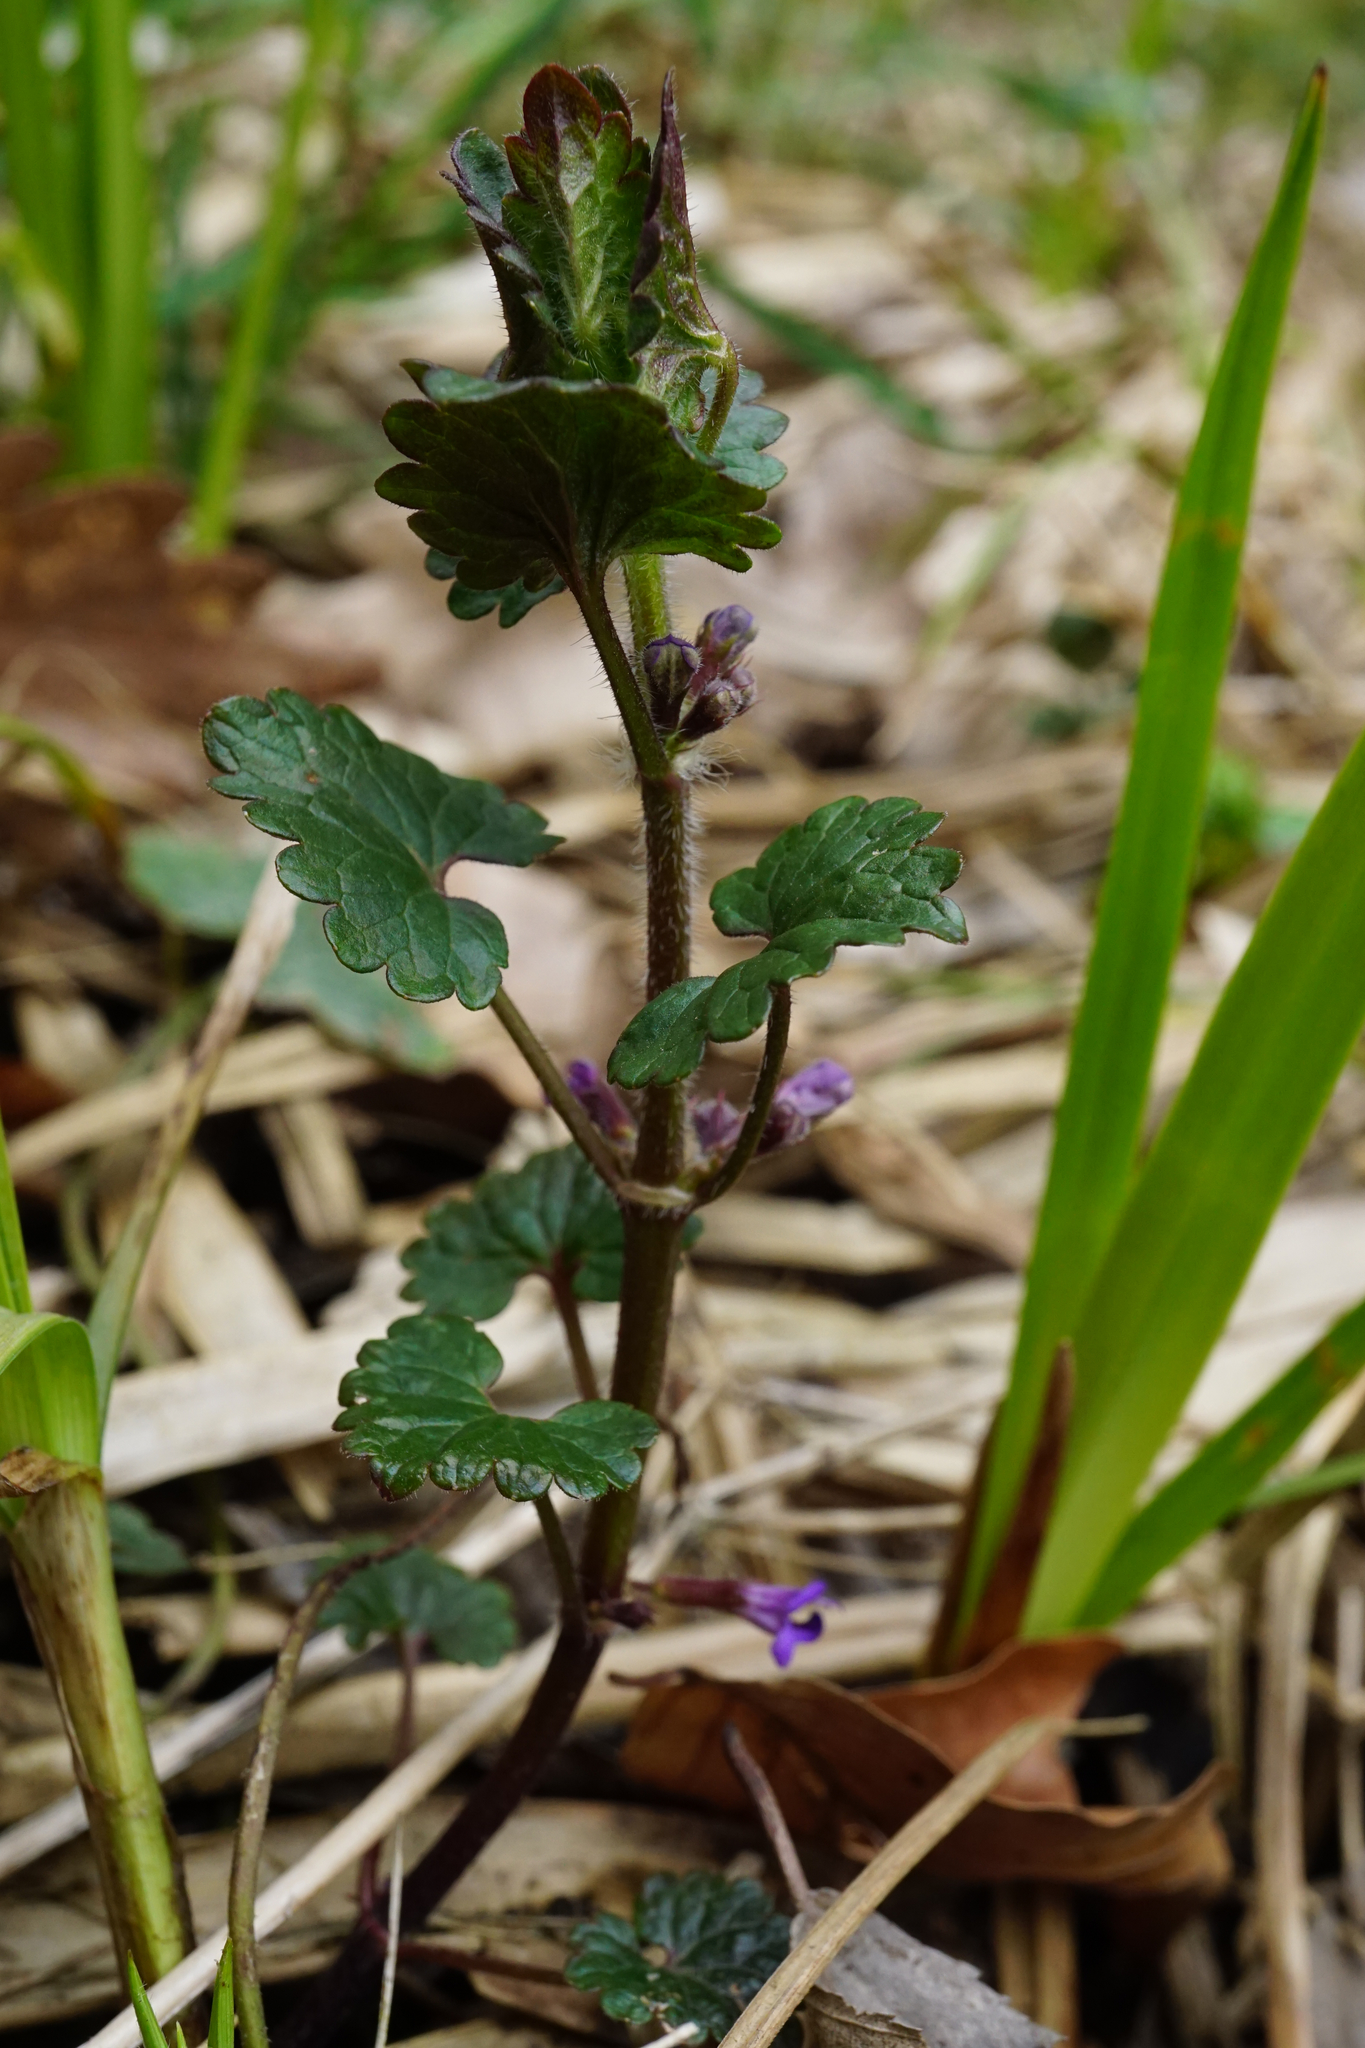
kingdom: Plantae
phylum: Tracheophyta
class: Magnoliopsida
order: Lamiales
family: Lamiaceae
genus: Glechoma
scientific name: Glechoma hederacea
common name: Ground ivy
